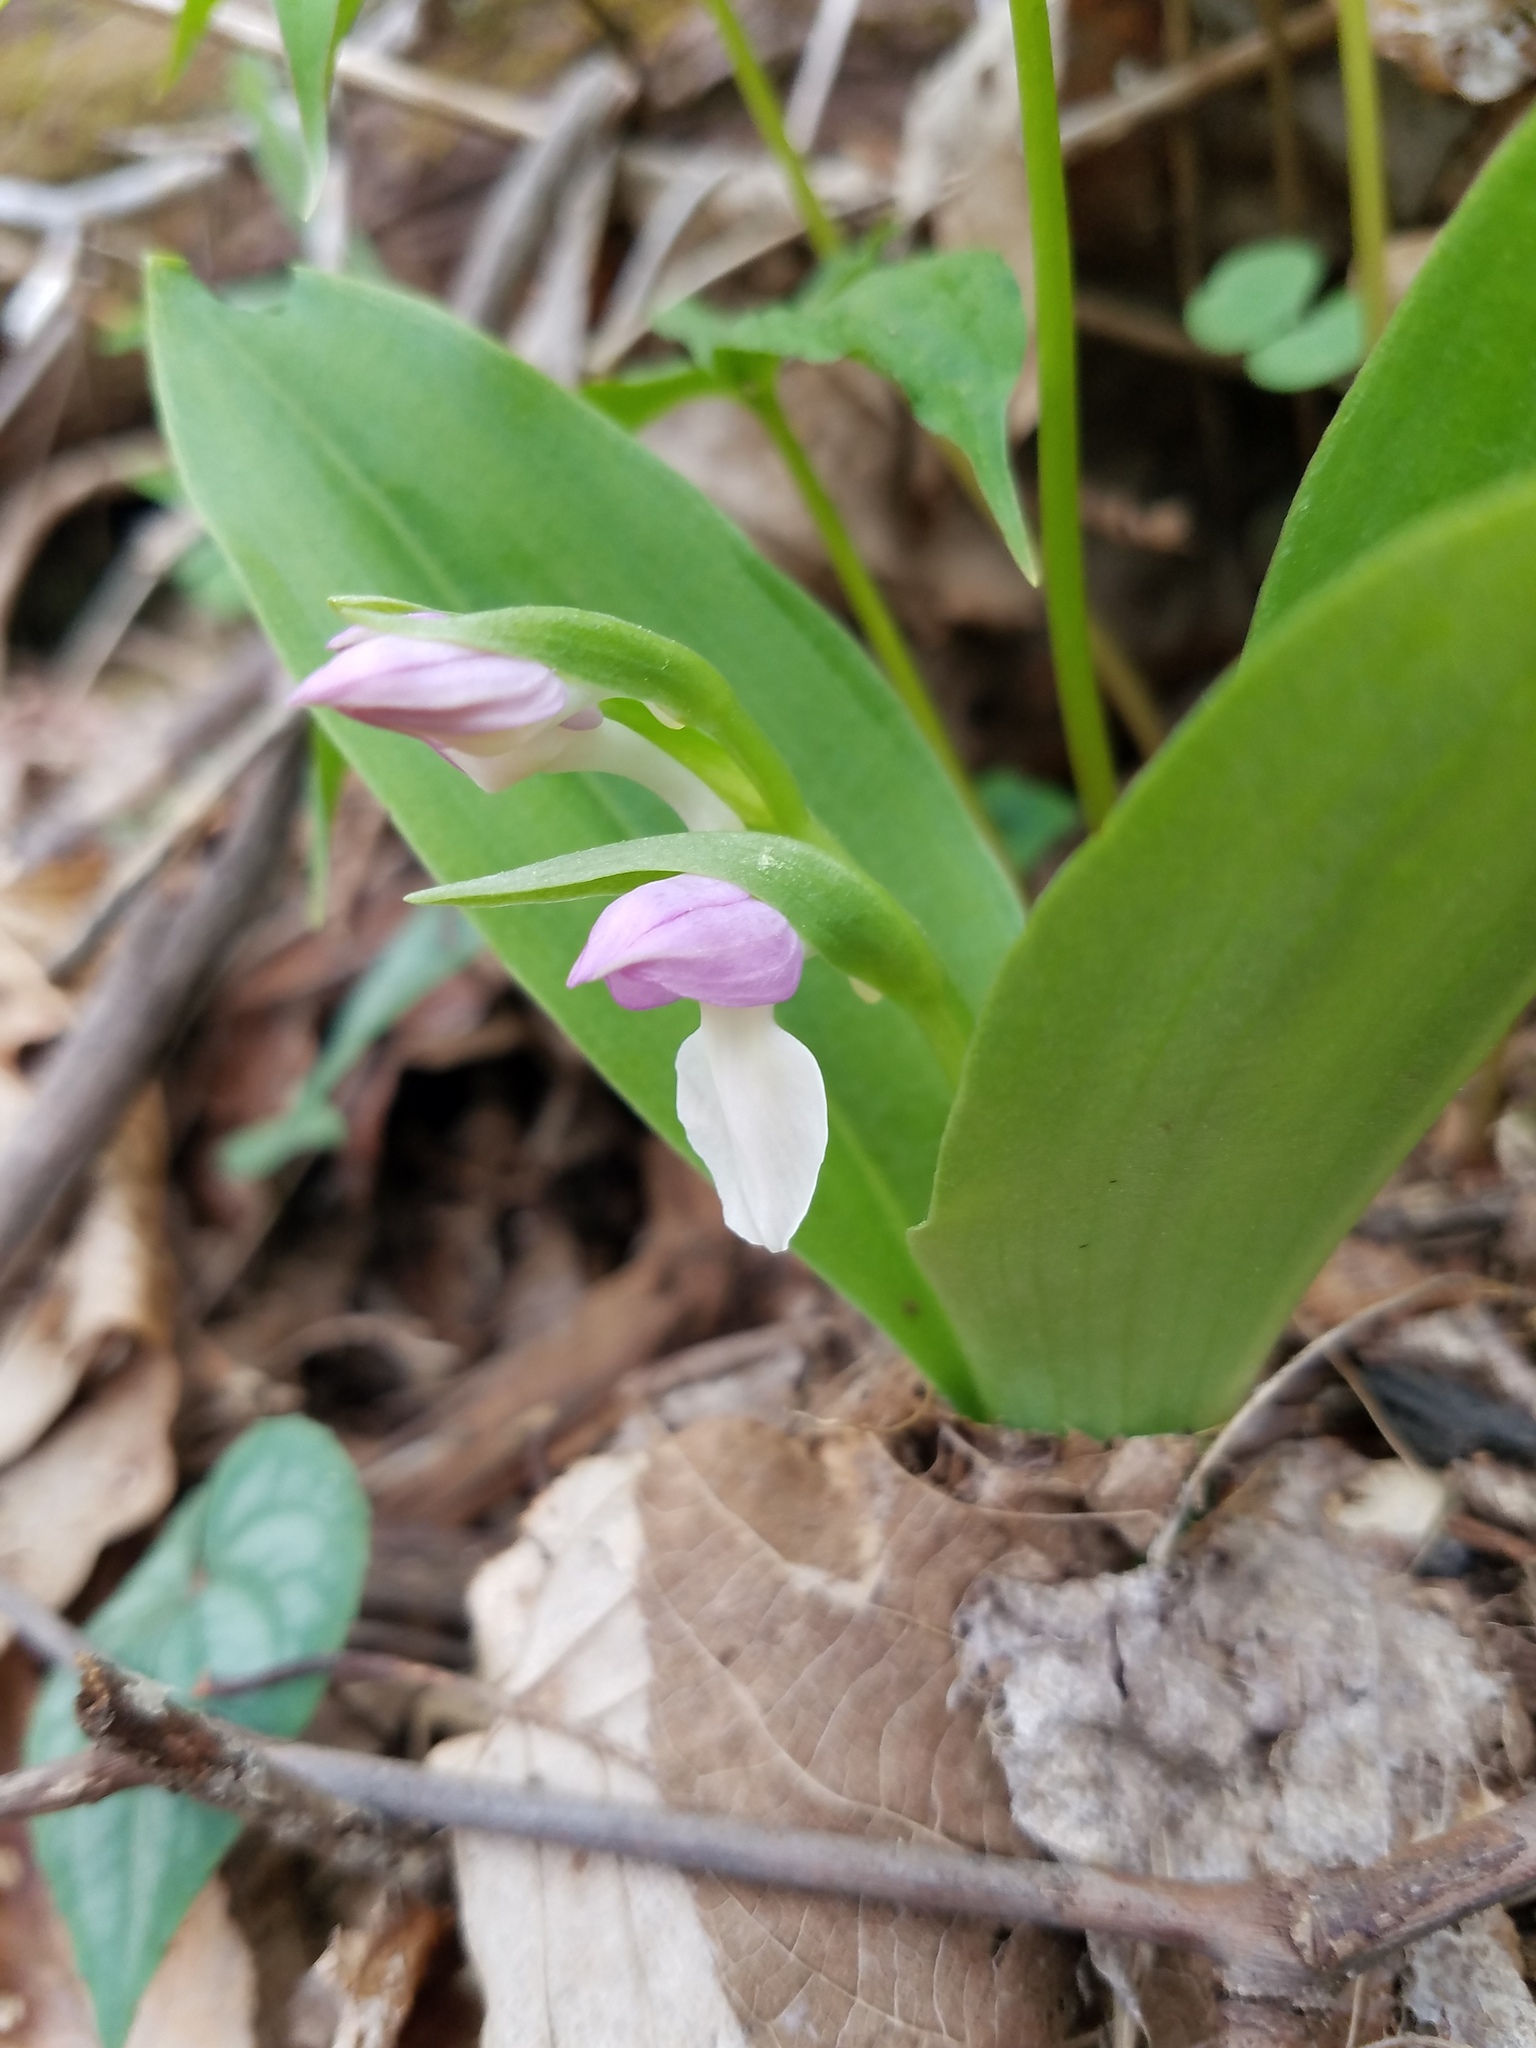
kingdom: Plantae
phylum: Tracheophyta
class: Liliopsida
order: Asparagales
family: Orchidaceae
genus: Galearis
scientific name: Galearis spectabilis
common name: Purple-hooded orchis
